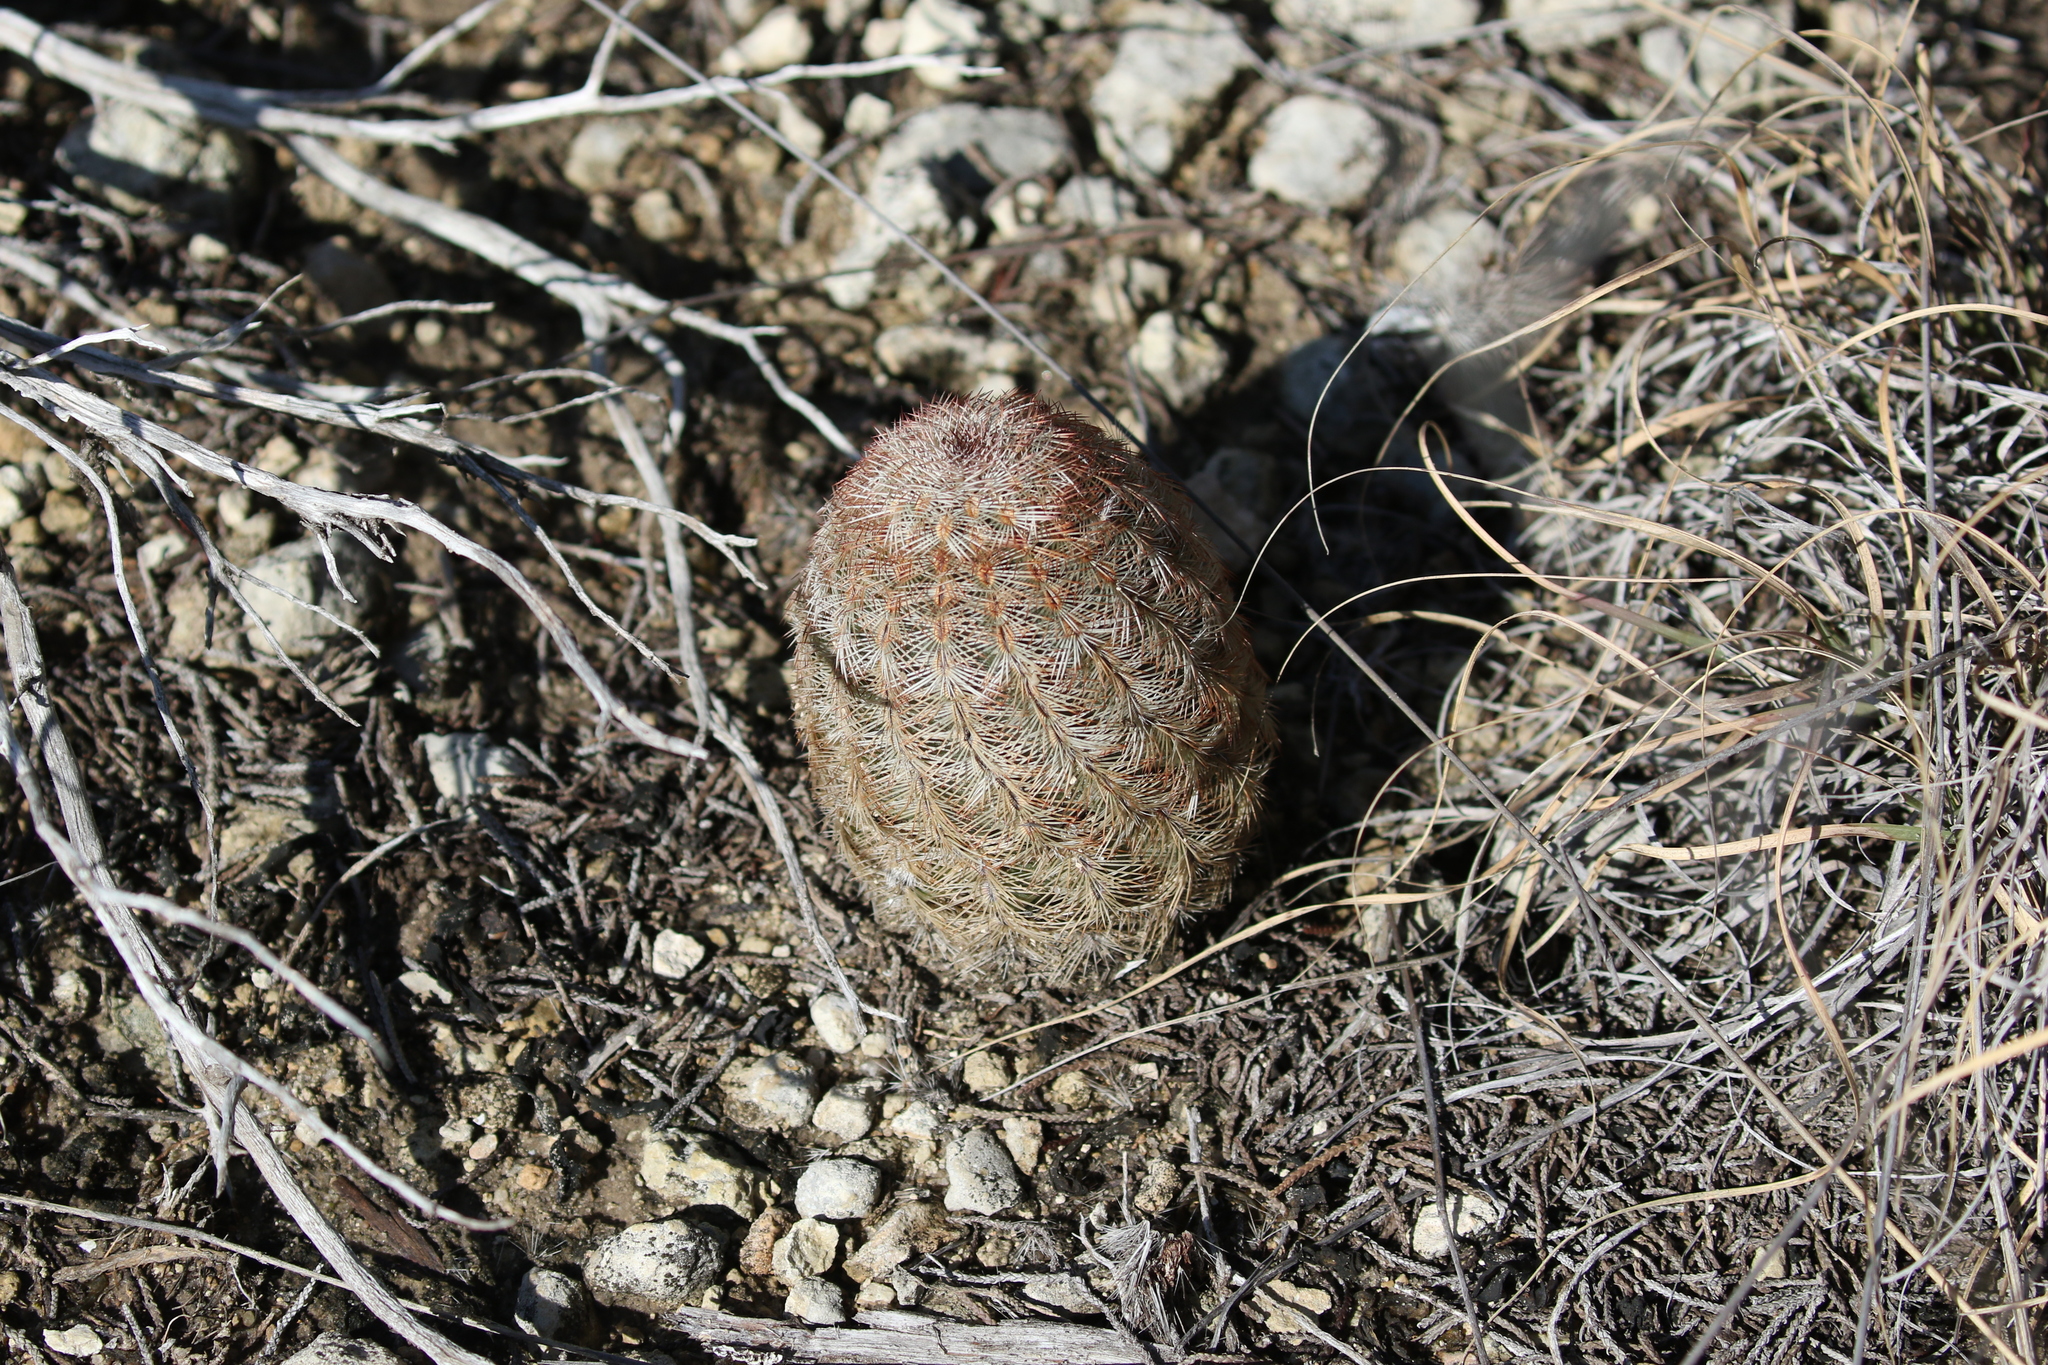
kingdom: Plantae
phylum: Tracheophyta
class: Magnoliopsida
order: Caryophyllales
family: Cactaceae
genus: Echinocereus
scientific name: Echinocereus reichenbachii
